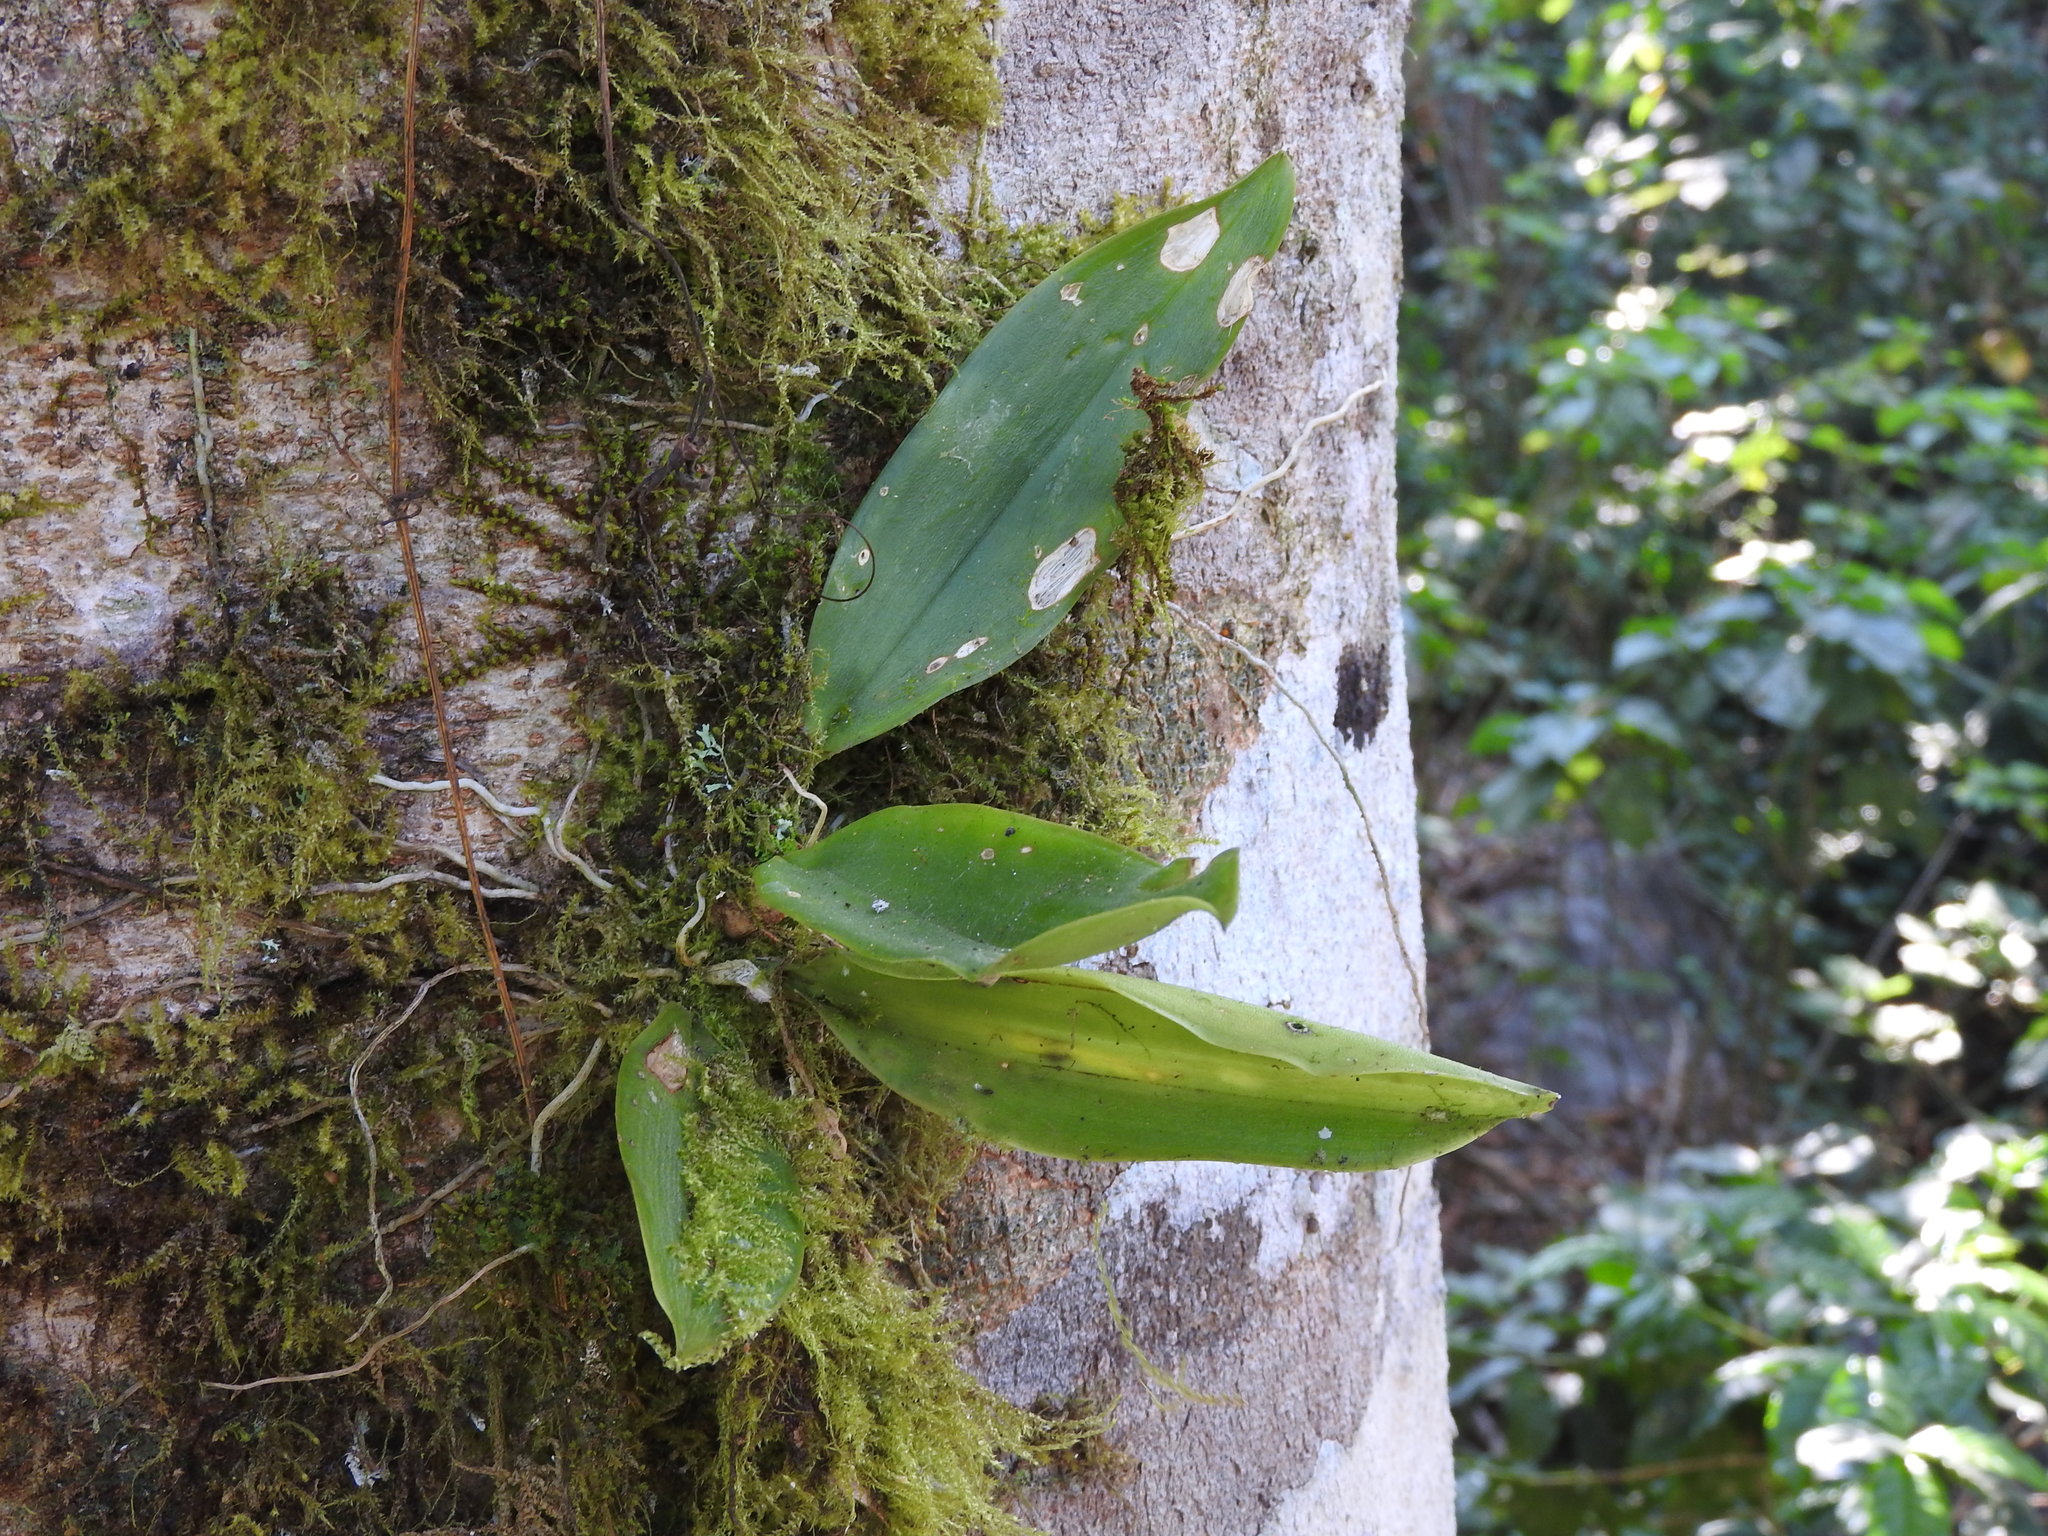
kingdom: Plantae
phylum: Tracheophyta
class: Liliopsida
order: Asparagales
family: Orchidaceae
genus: Notylia
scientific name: Notylia barkeri
